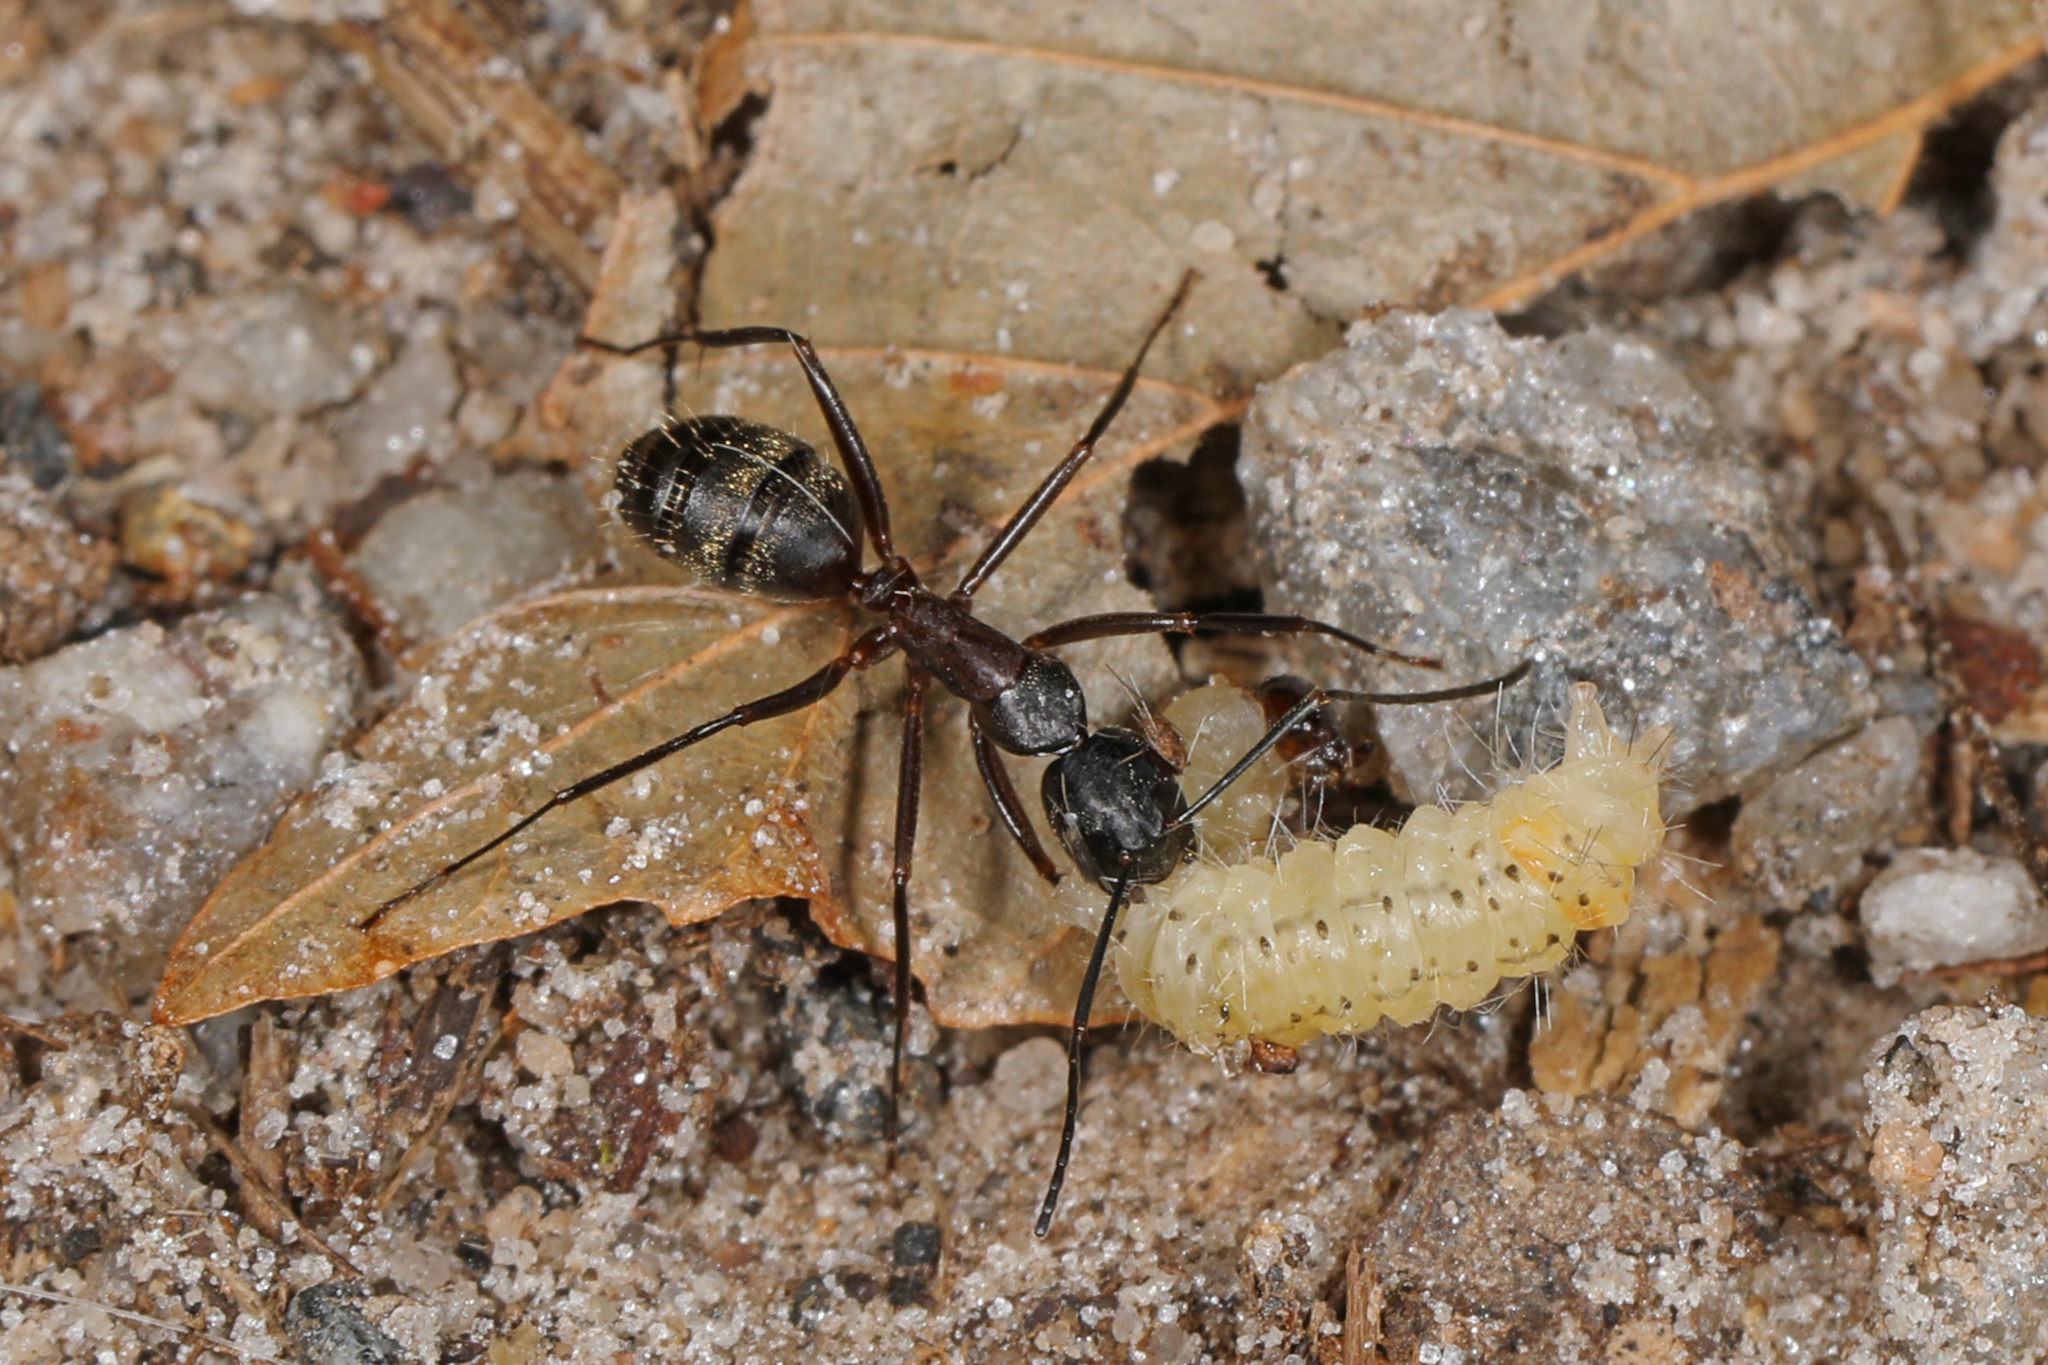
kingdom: Animalia
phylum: Arthropoda
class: Insecta
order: Hymenoptera
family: Formicidae
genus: Camponotus
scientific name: Camponotus chromaiodes
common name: Red carpenter ant
